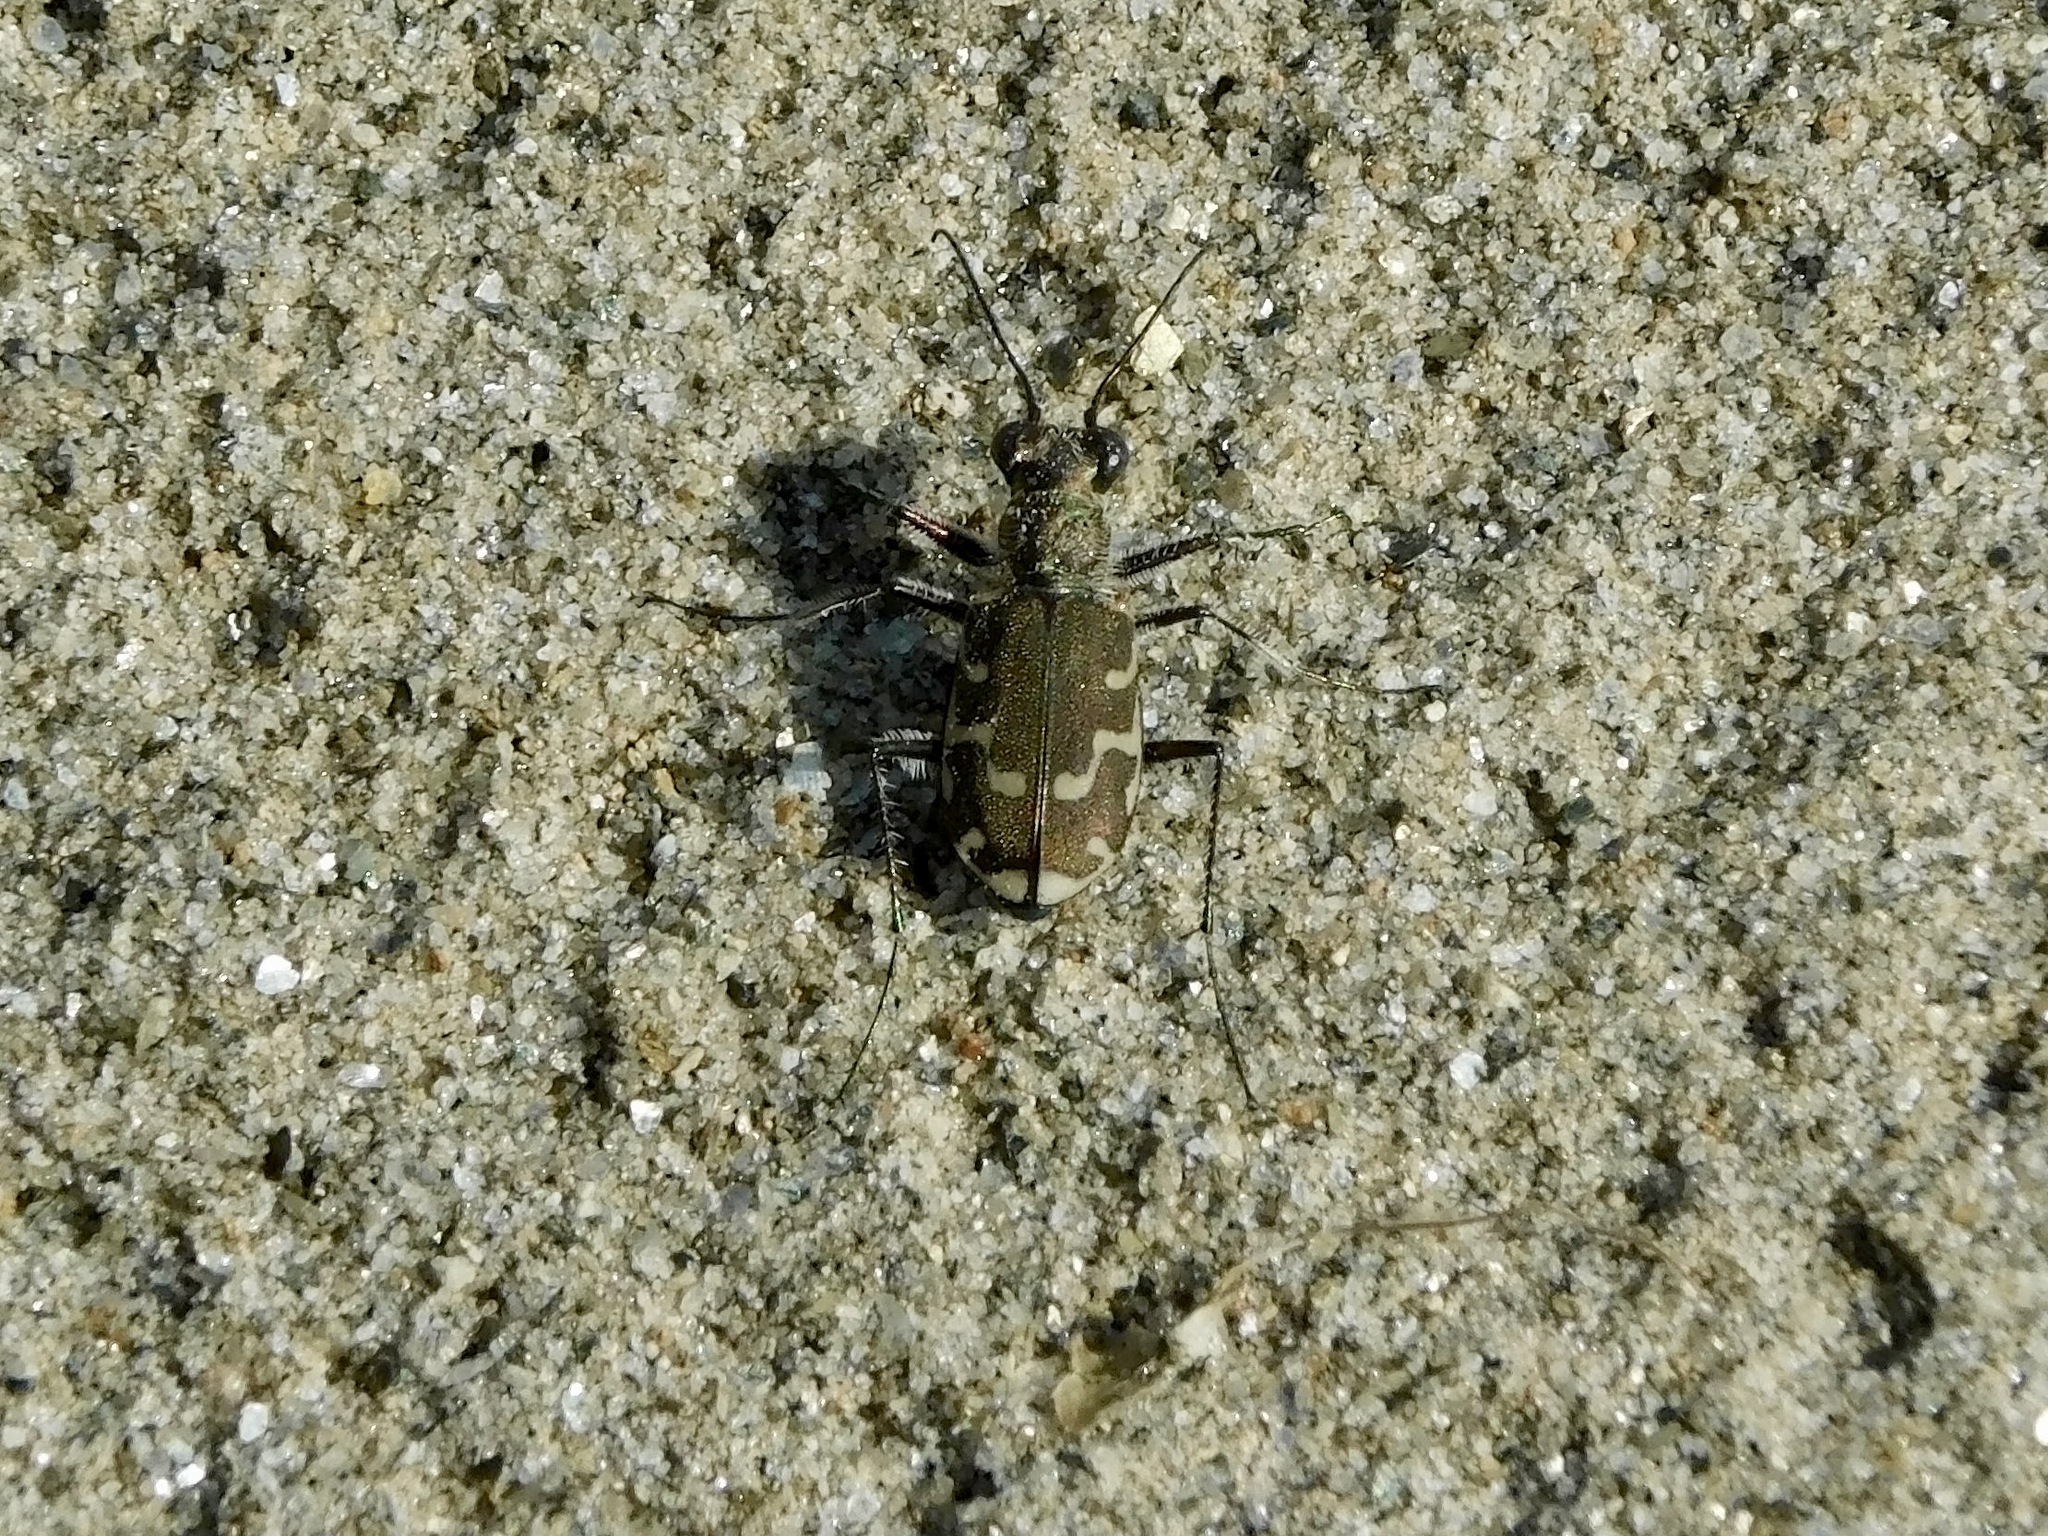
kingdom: Animalia
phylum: Arthropoda
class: Insecta
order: Coleoptera
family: Carabidae
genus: Cicindela
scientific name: Cicindela repanda
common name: Bronzed tiger beetle
